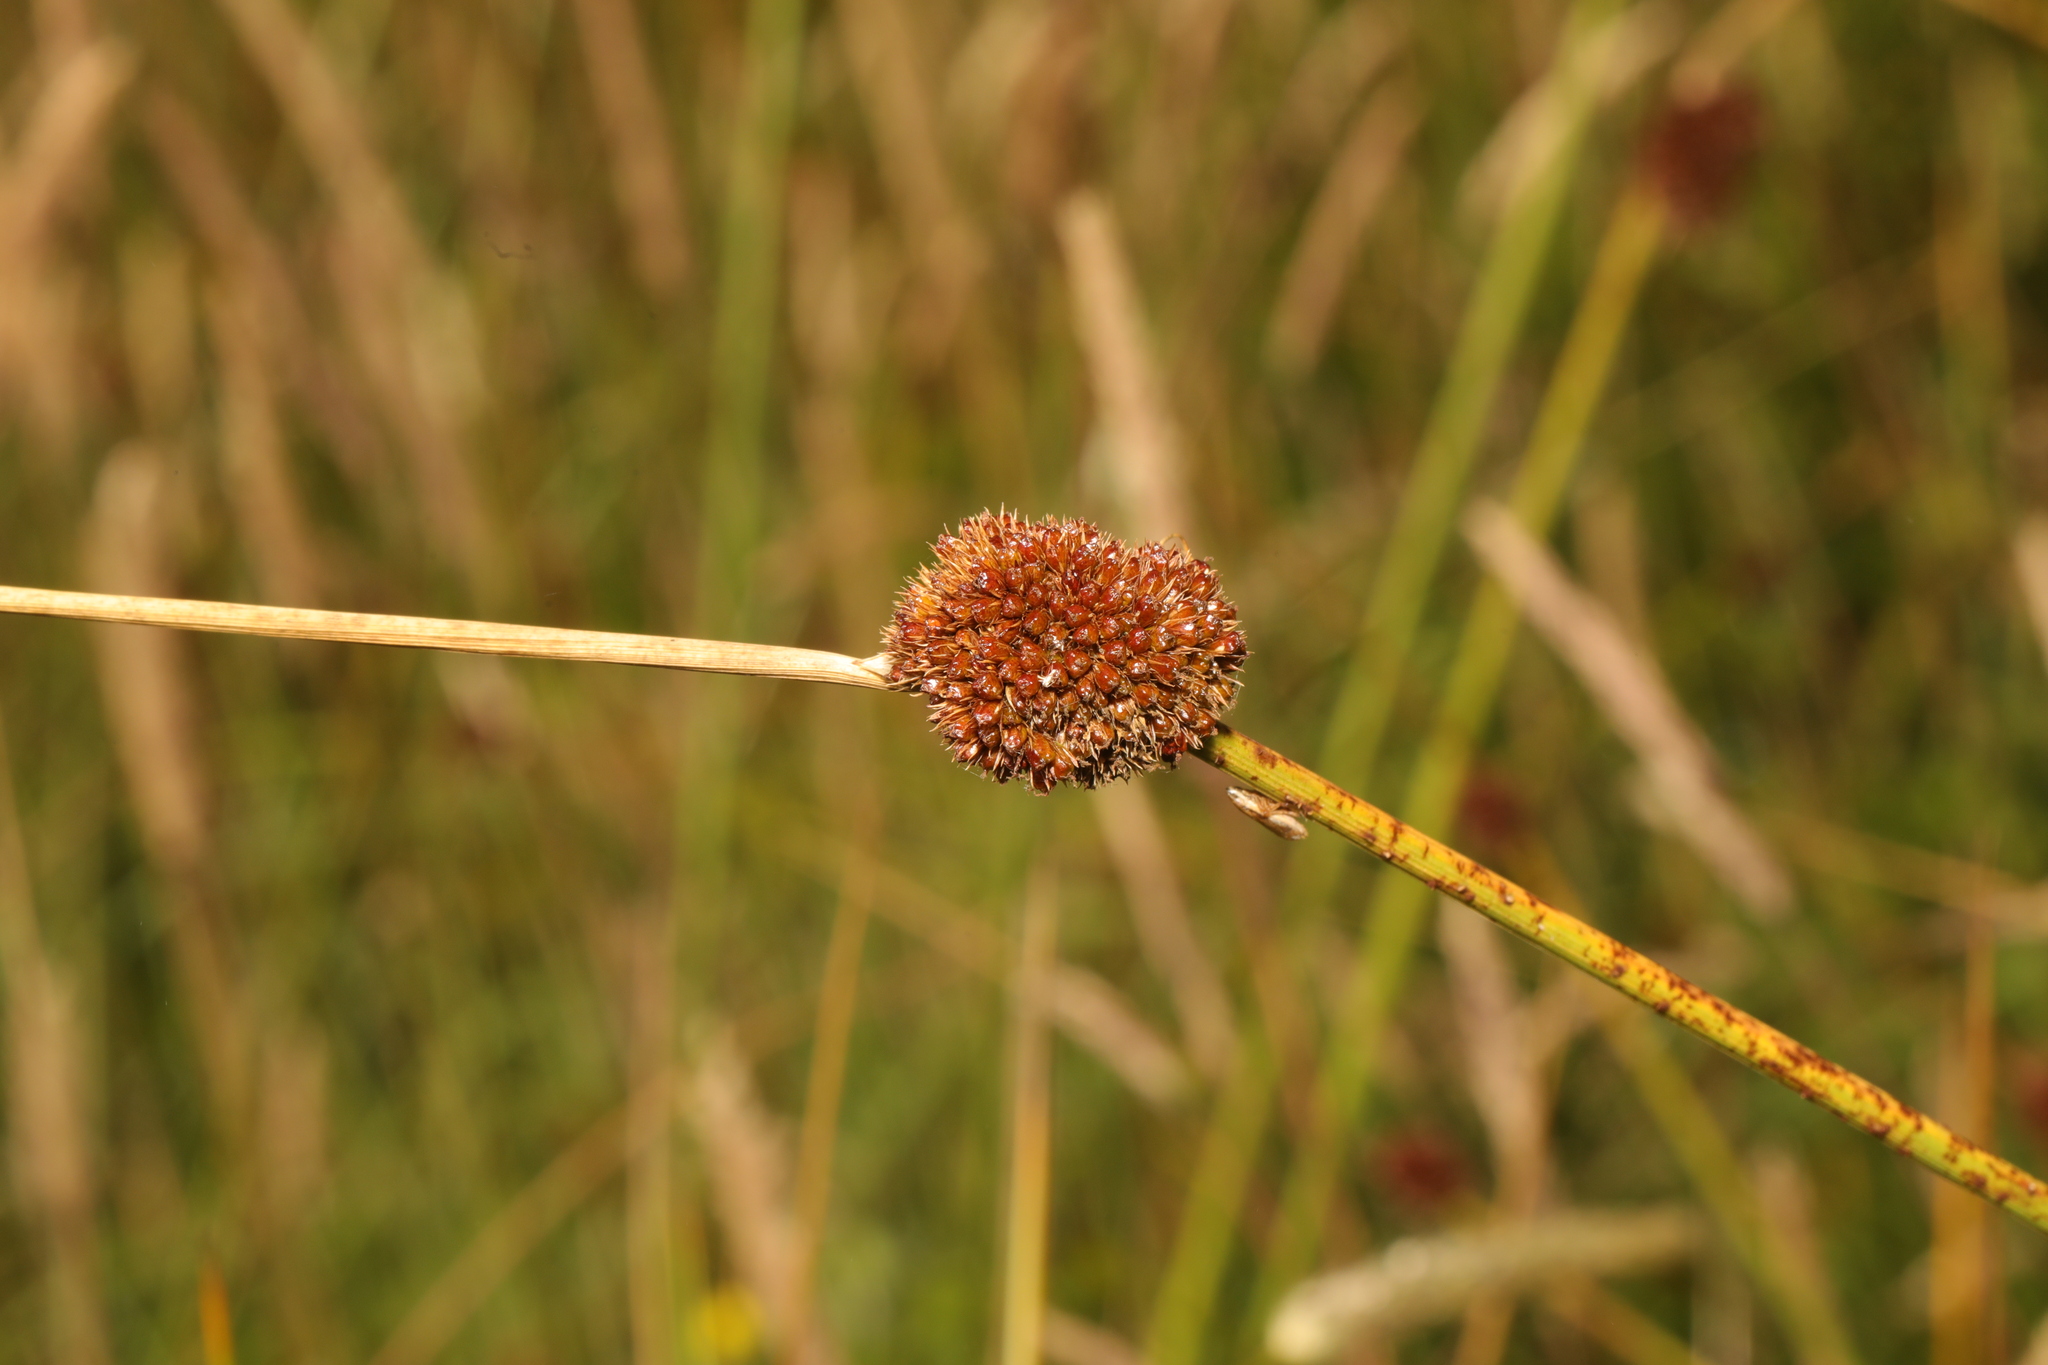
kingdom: Plantae
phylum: Tracheophyta
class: Liliopsida
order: Poales
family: Juncaceae
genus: Juncus
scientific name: Juncus conglomeratus
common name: Compact rush
